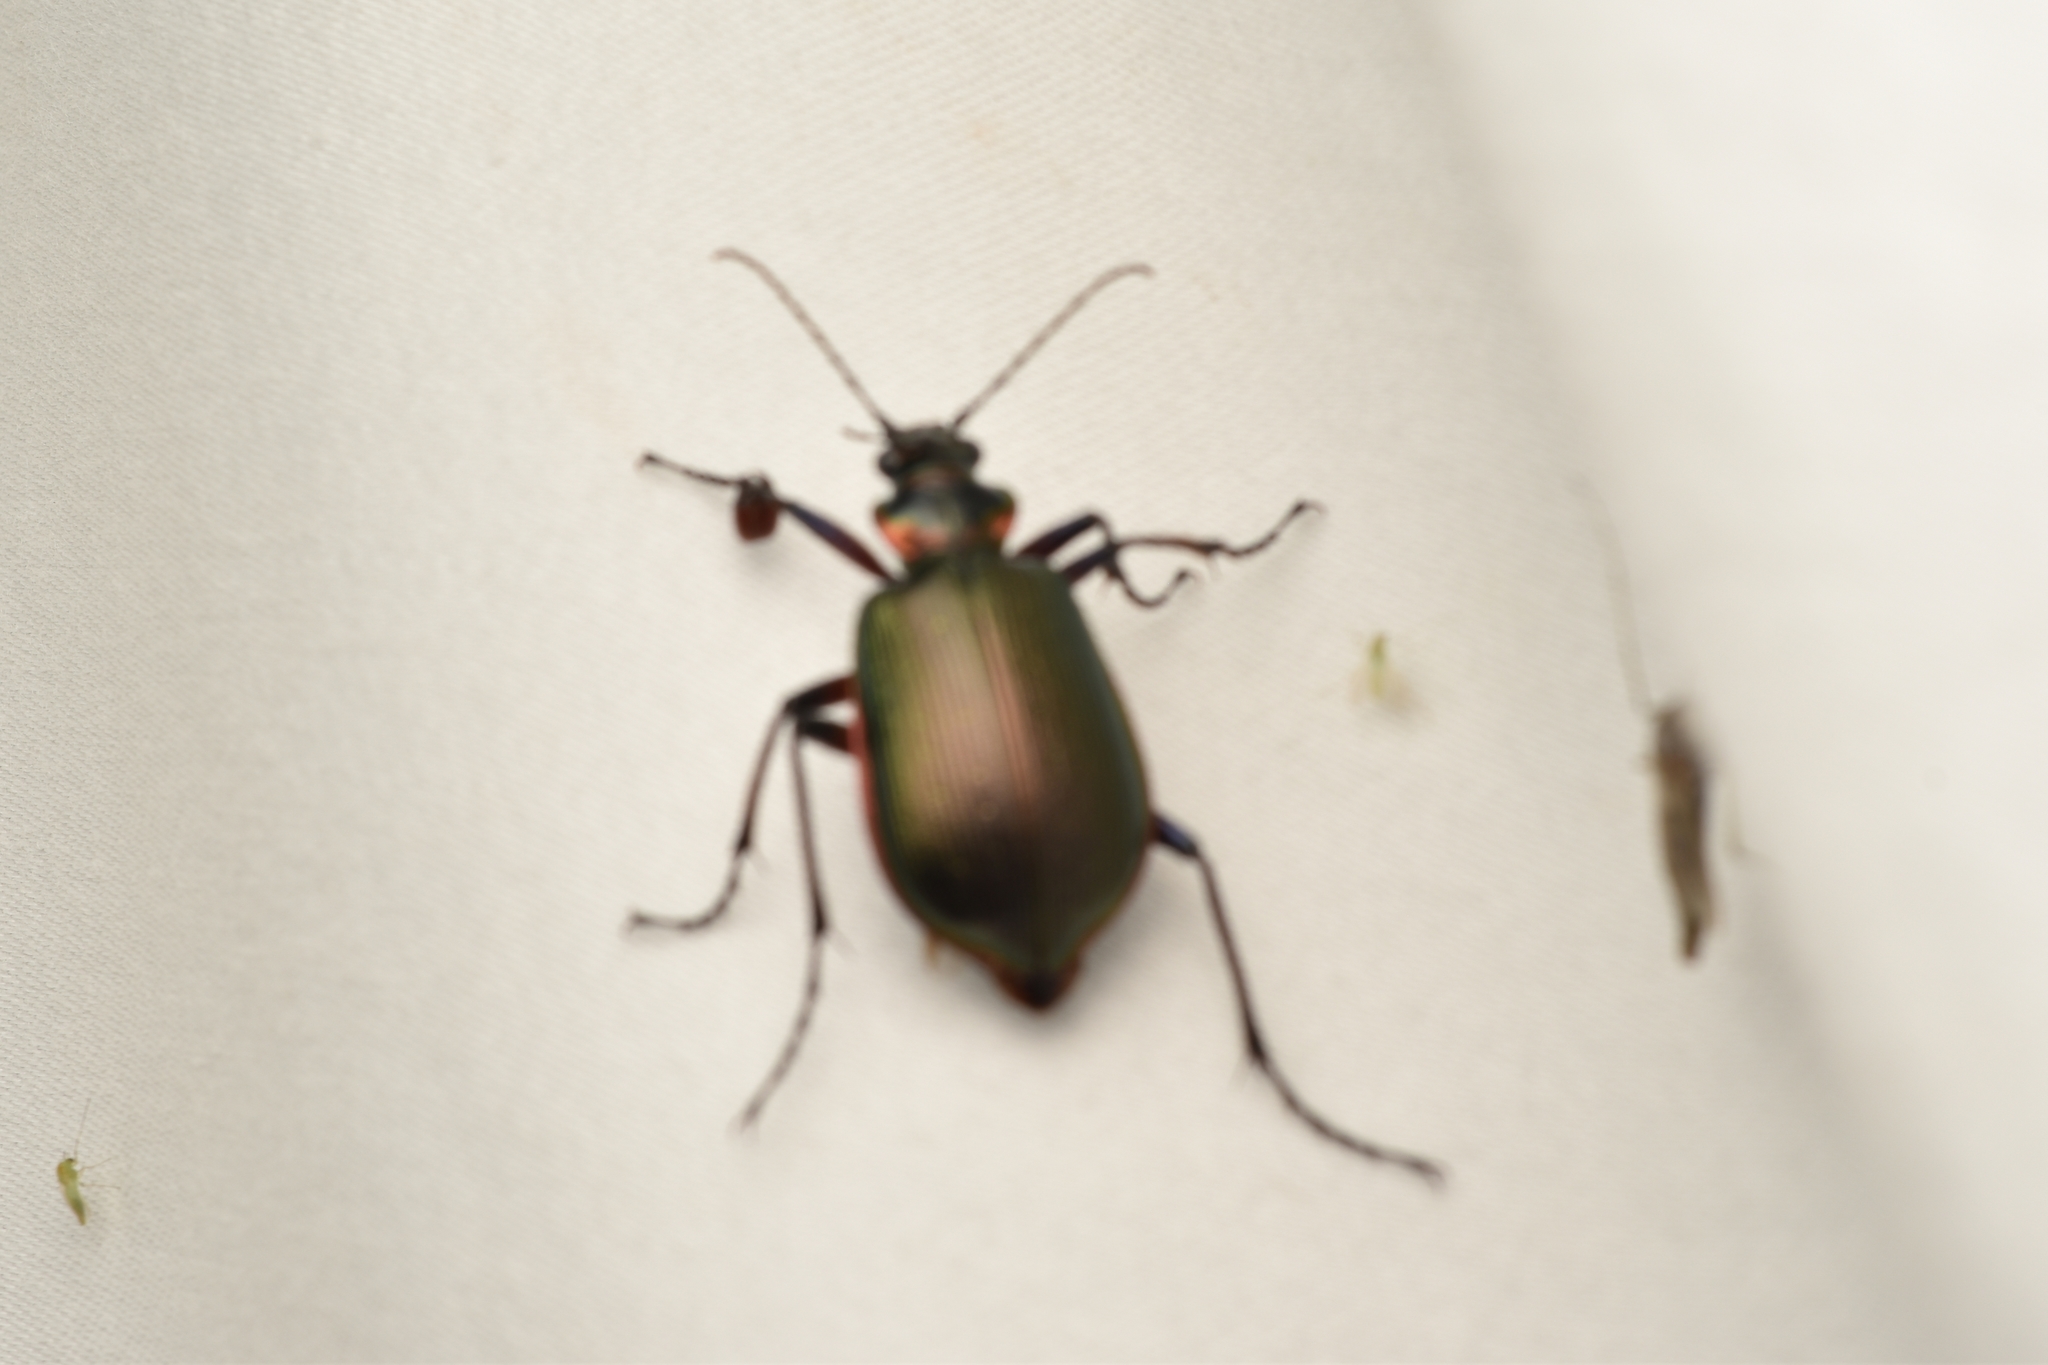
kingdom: Animalia
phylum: Arthropoda
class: Insecta
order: Coleoptera
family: Carabidae
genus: Calosoma
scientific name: Calosoma wilcoxi
